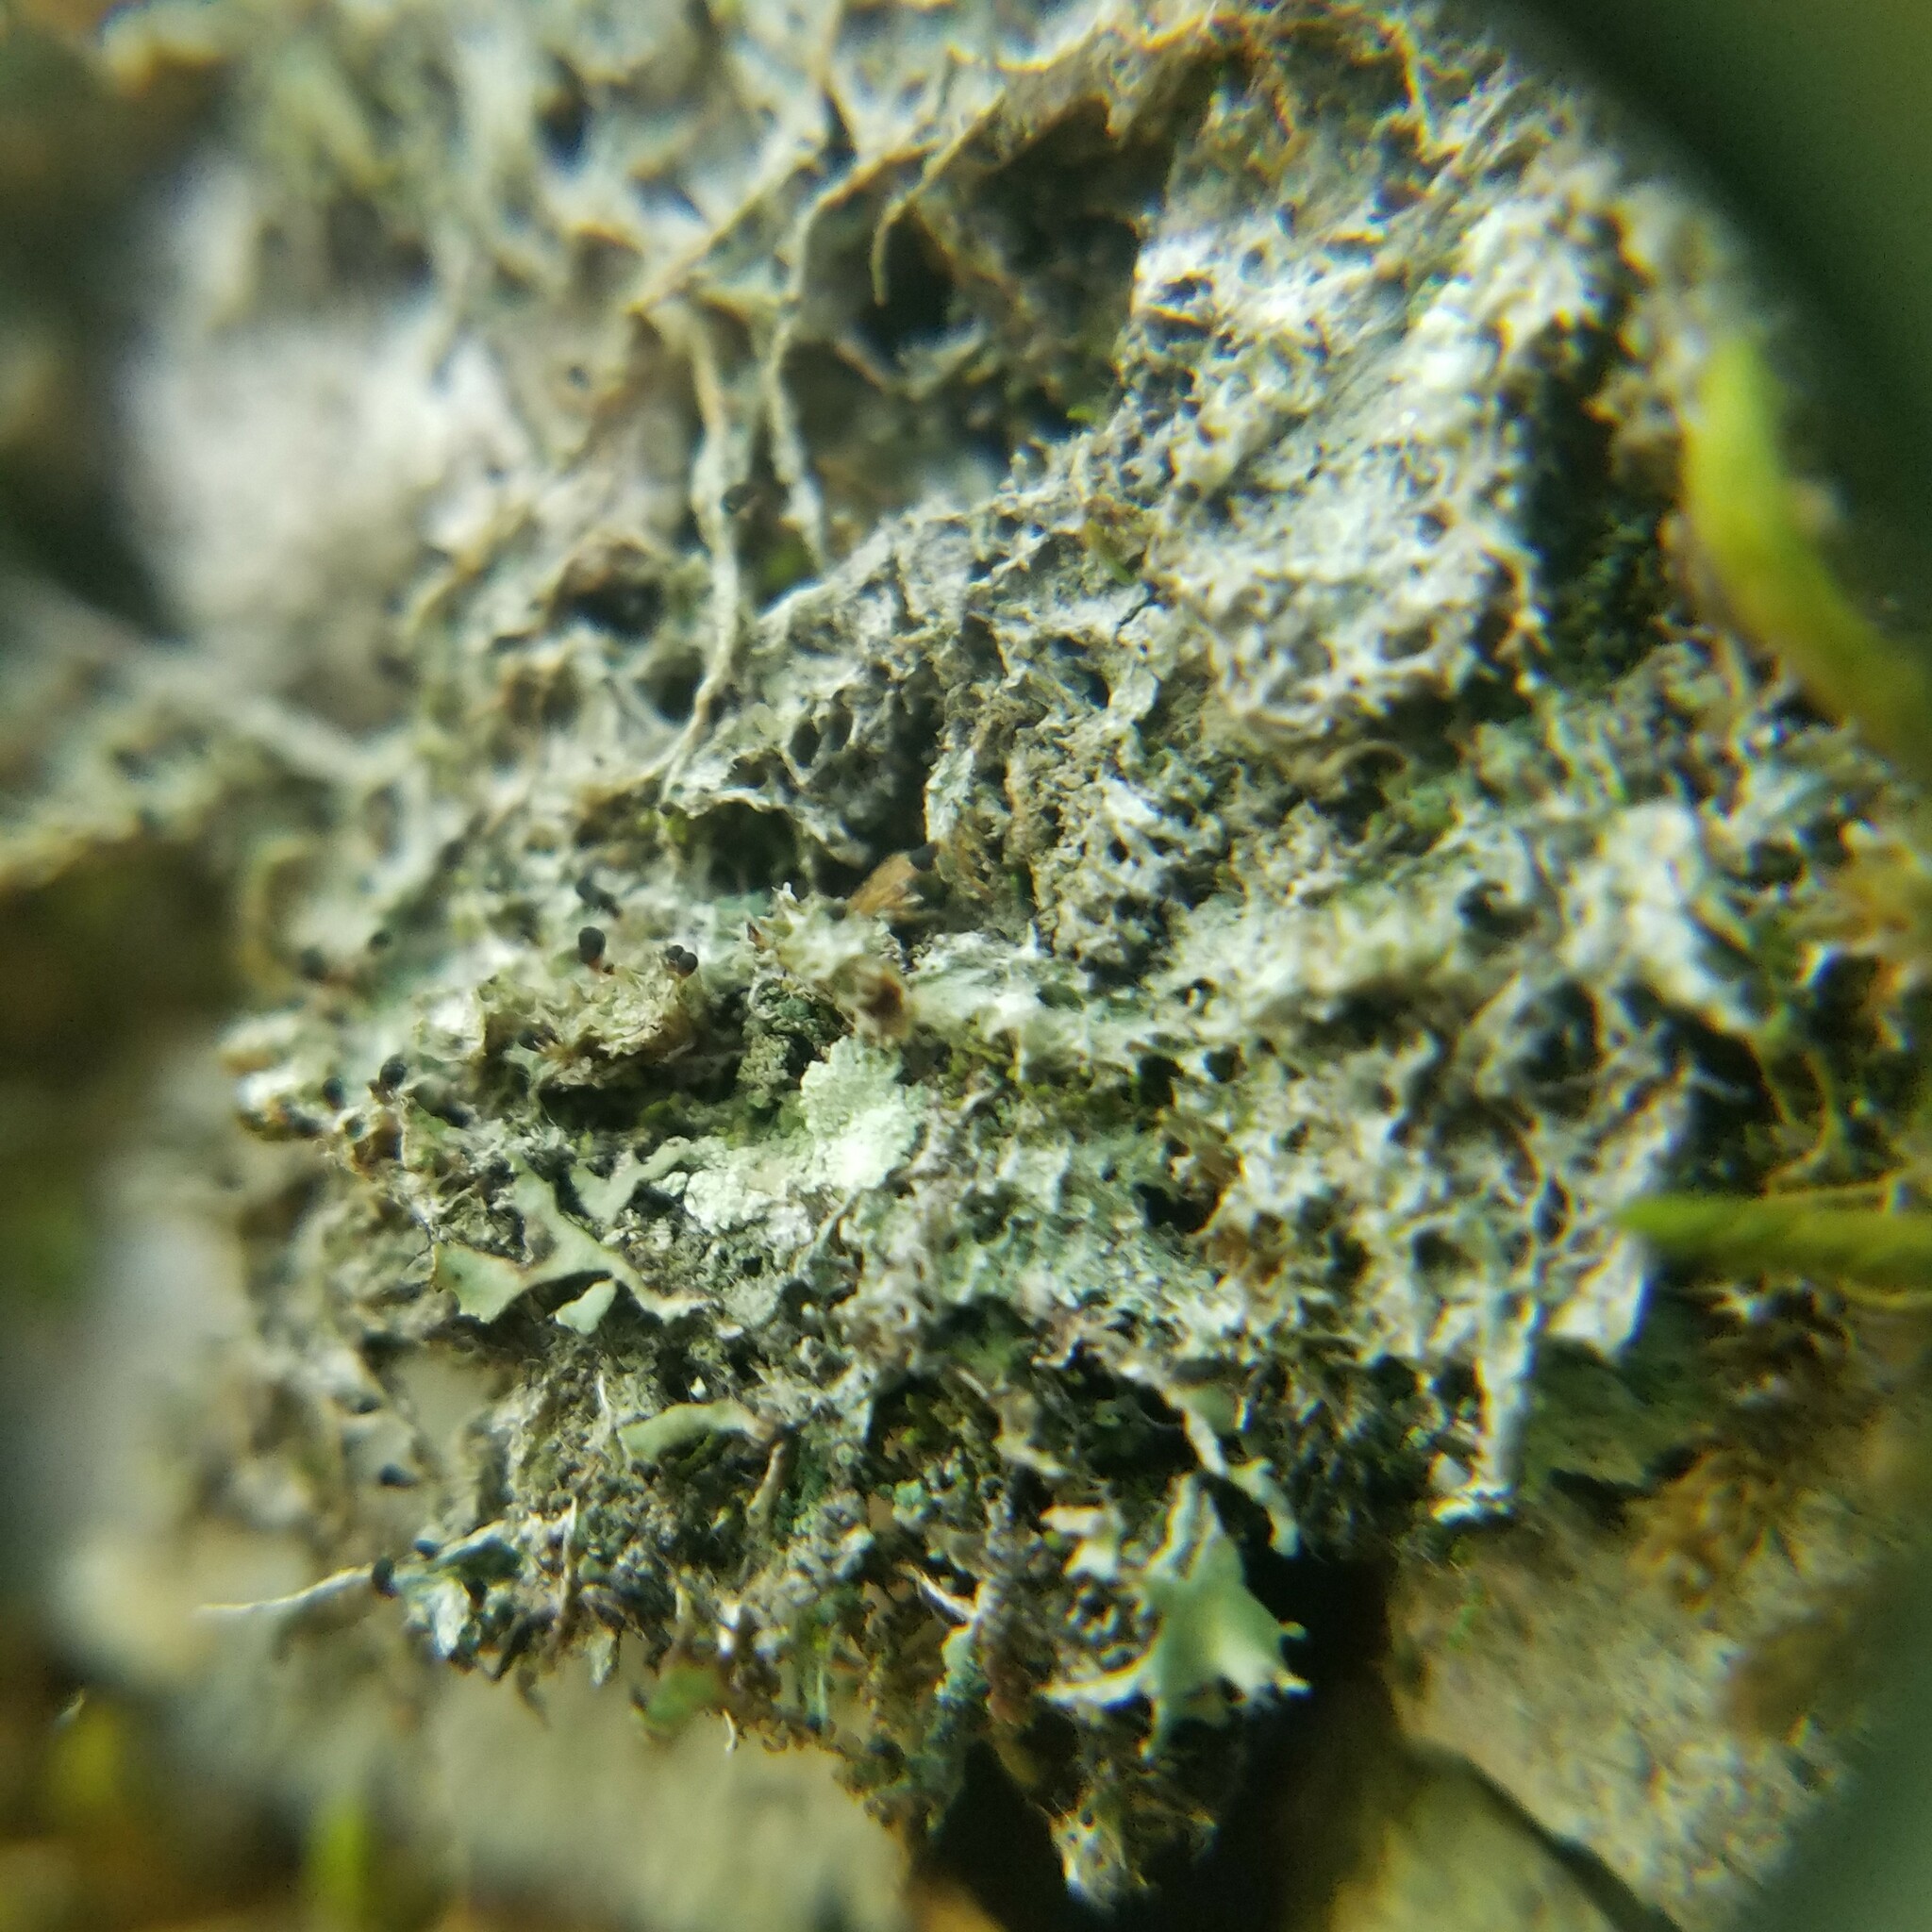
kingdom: Fungi
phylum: Ascomycota
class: Lecanoromycetes
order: Ostropales
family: Gomphillaceae
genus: Gomphillus
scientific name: Gomphillus calycioides
